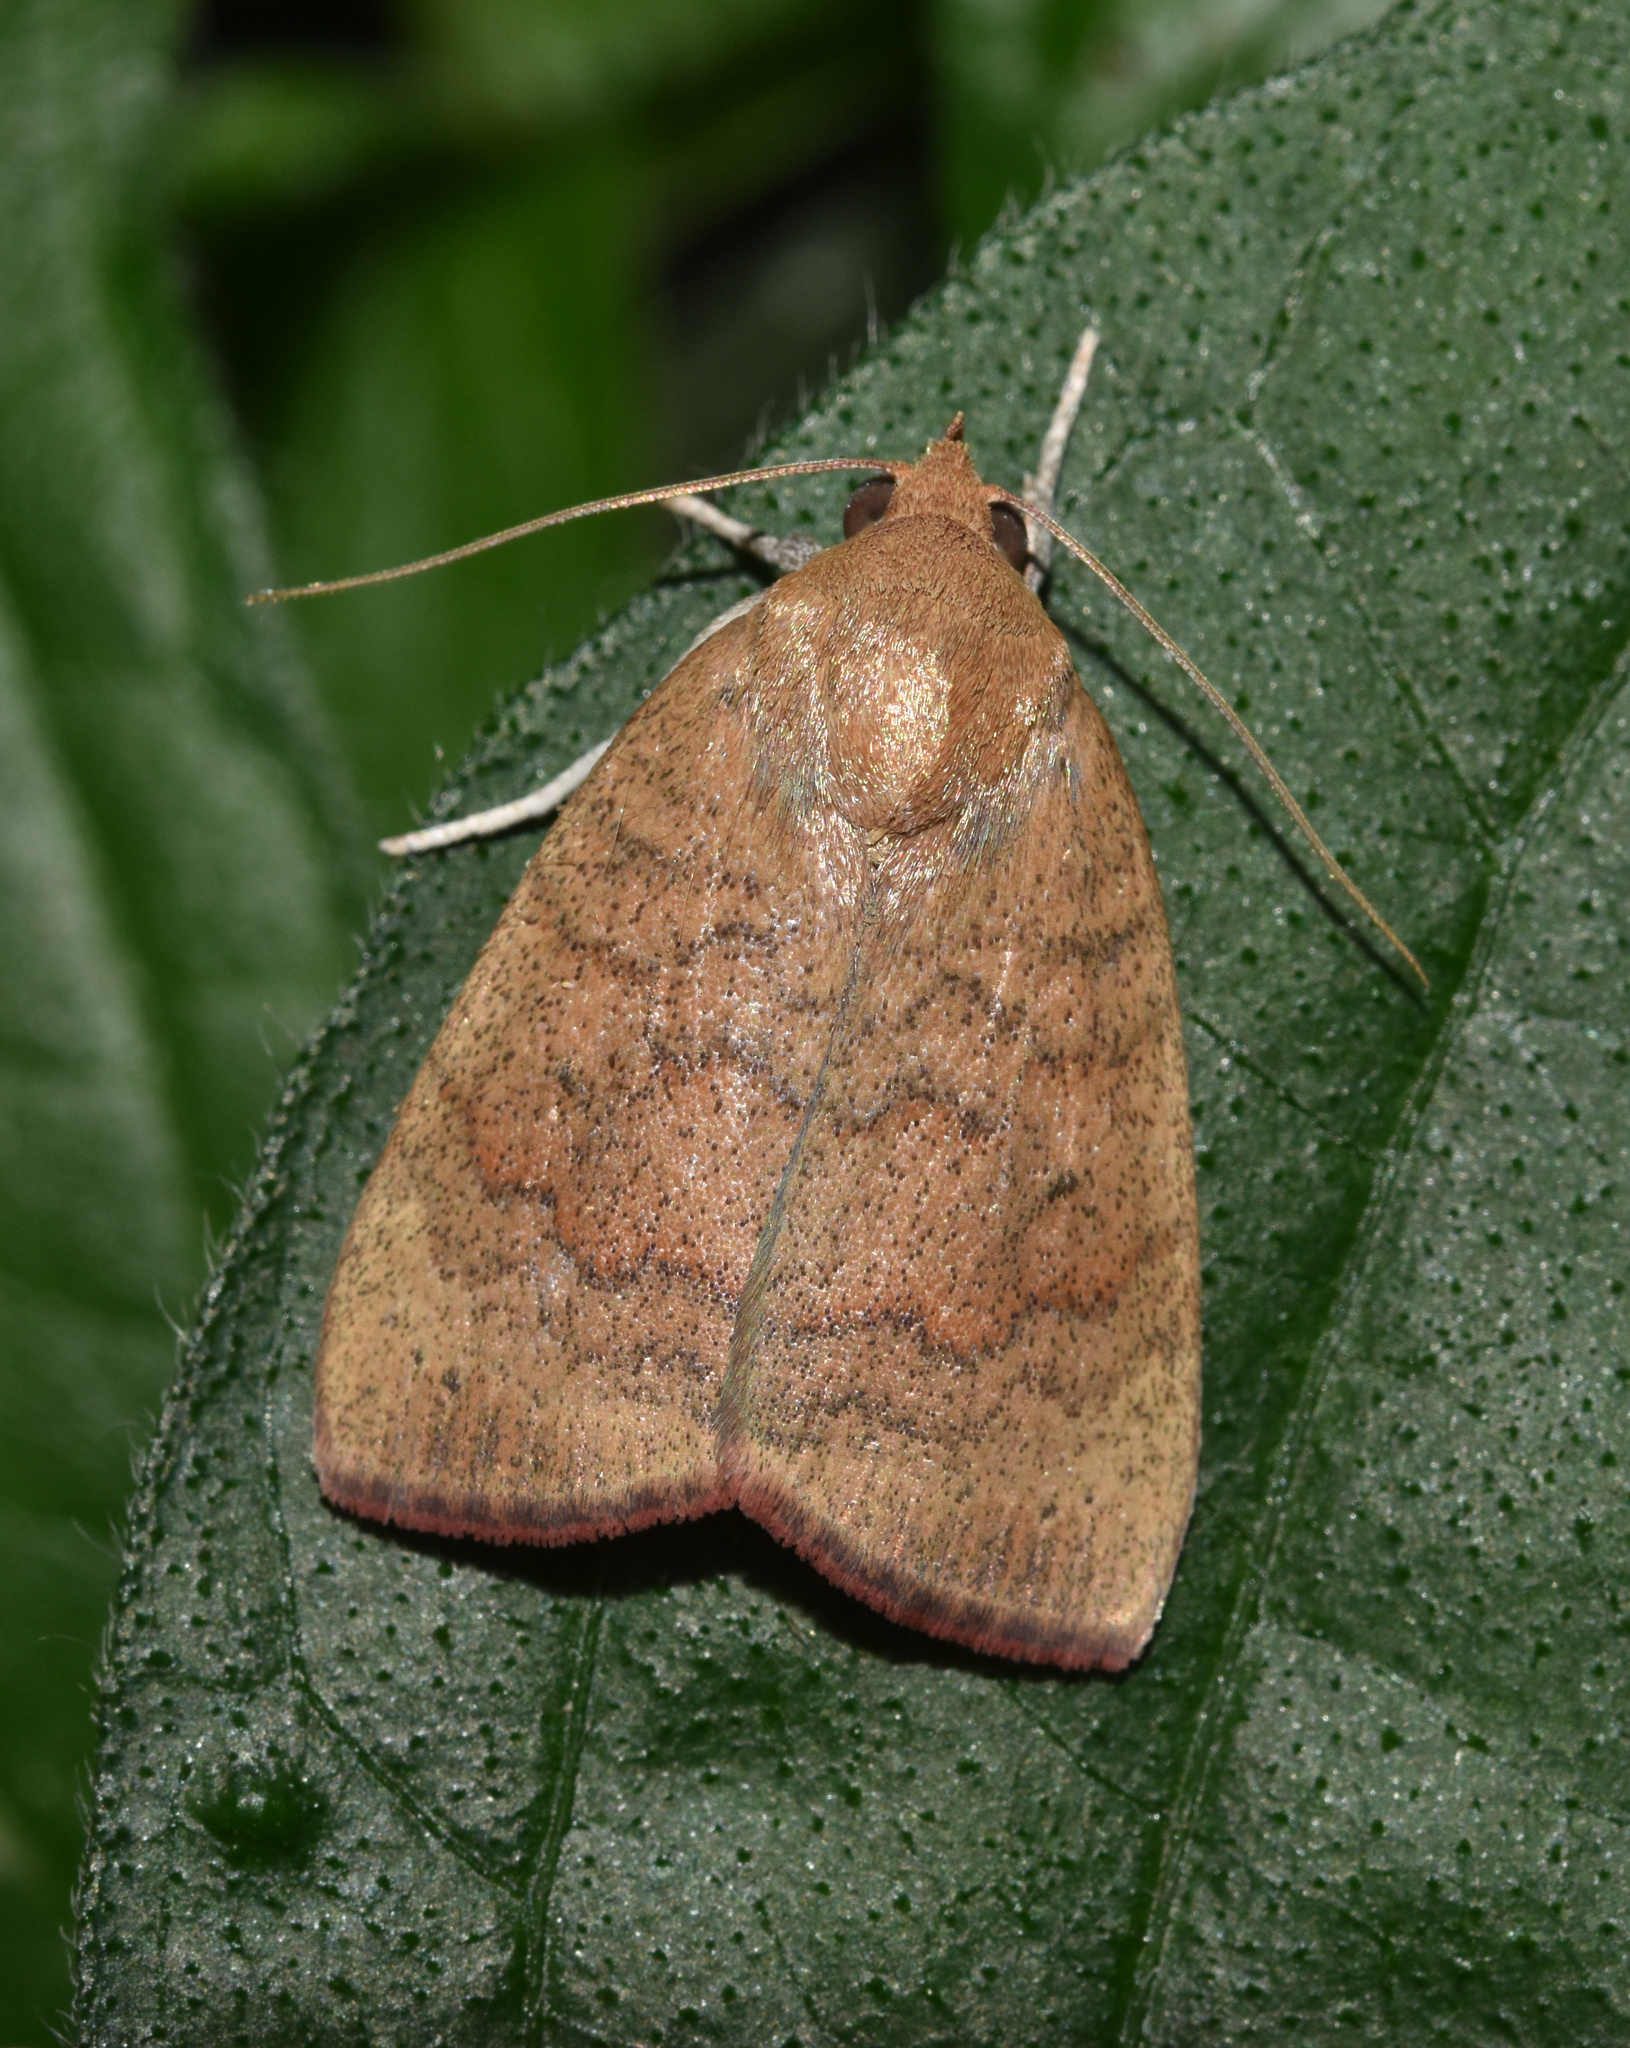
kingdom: Animalia
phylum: Arthropoda
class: Insecta
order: Lepidoptera
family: Nolidae
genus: Maurilia
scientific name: Maurilia arcuata
